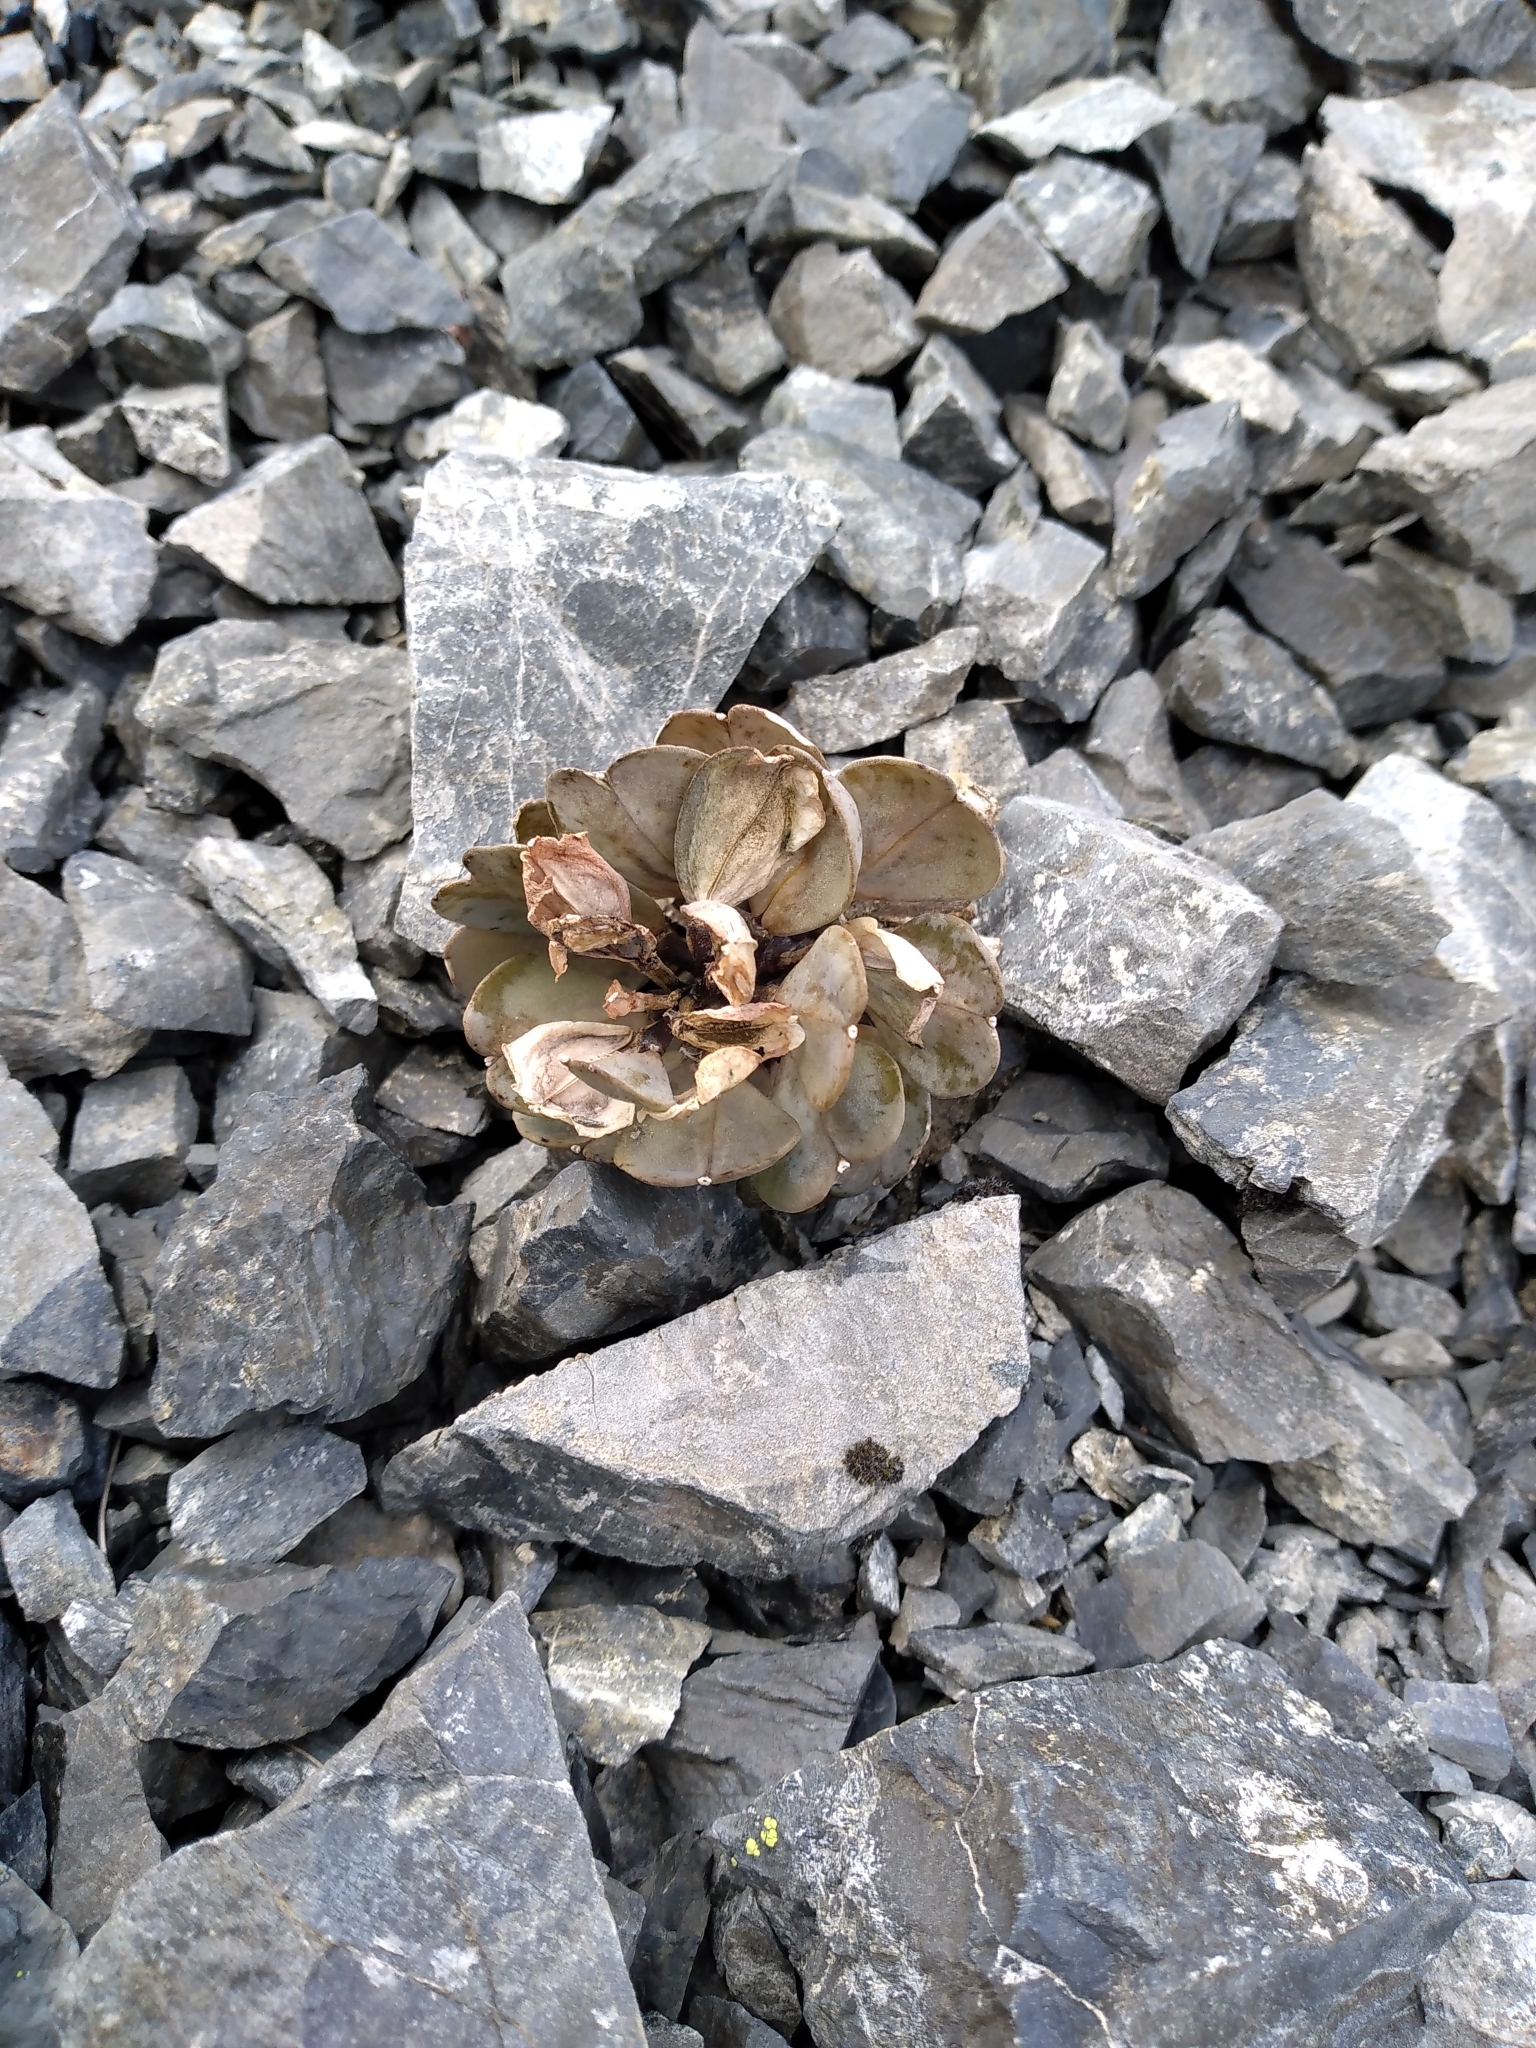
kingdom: Plantae
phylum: Tracheophyta
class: Magnoliopsida
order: Brassicales
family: Brassicaceae
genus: Notothlaspi
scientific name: Notothlaspi rosulatum
